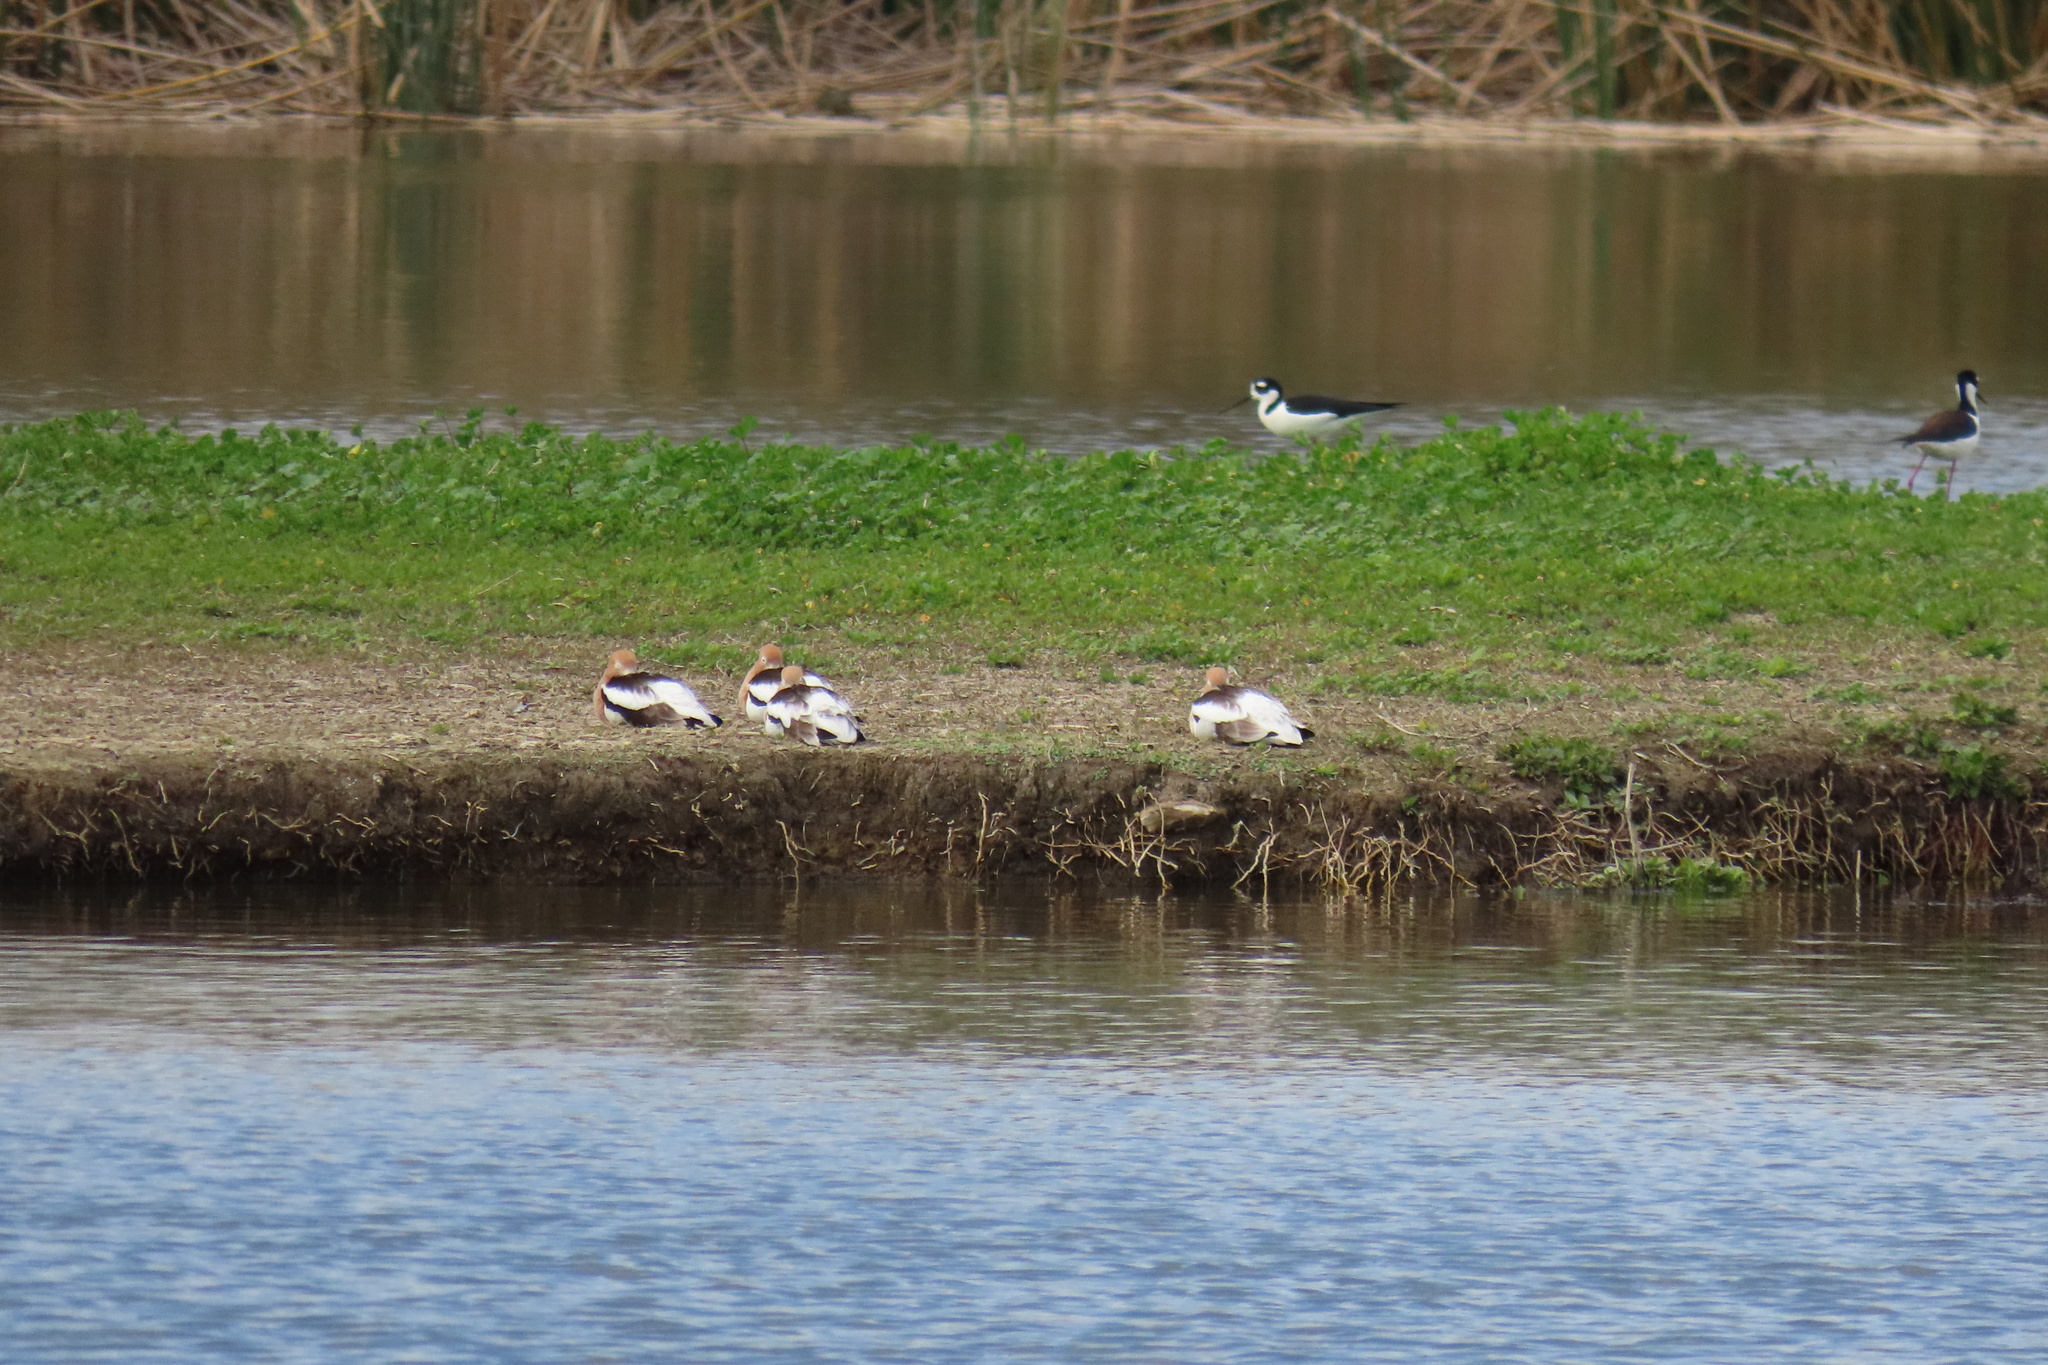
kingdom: Animalia
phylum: Chordata
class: Aves
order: Charadriiformes
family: Recurvirostridae
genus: Himantopus
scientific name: Himantopus mexicanus
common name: Black-necked stilt
